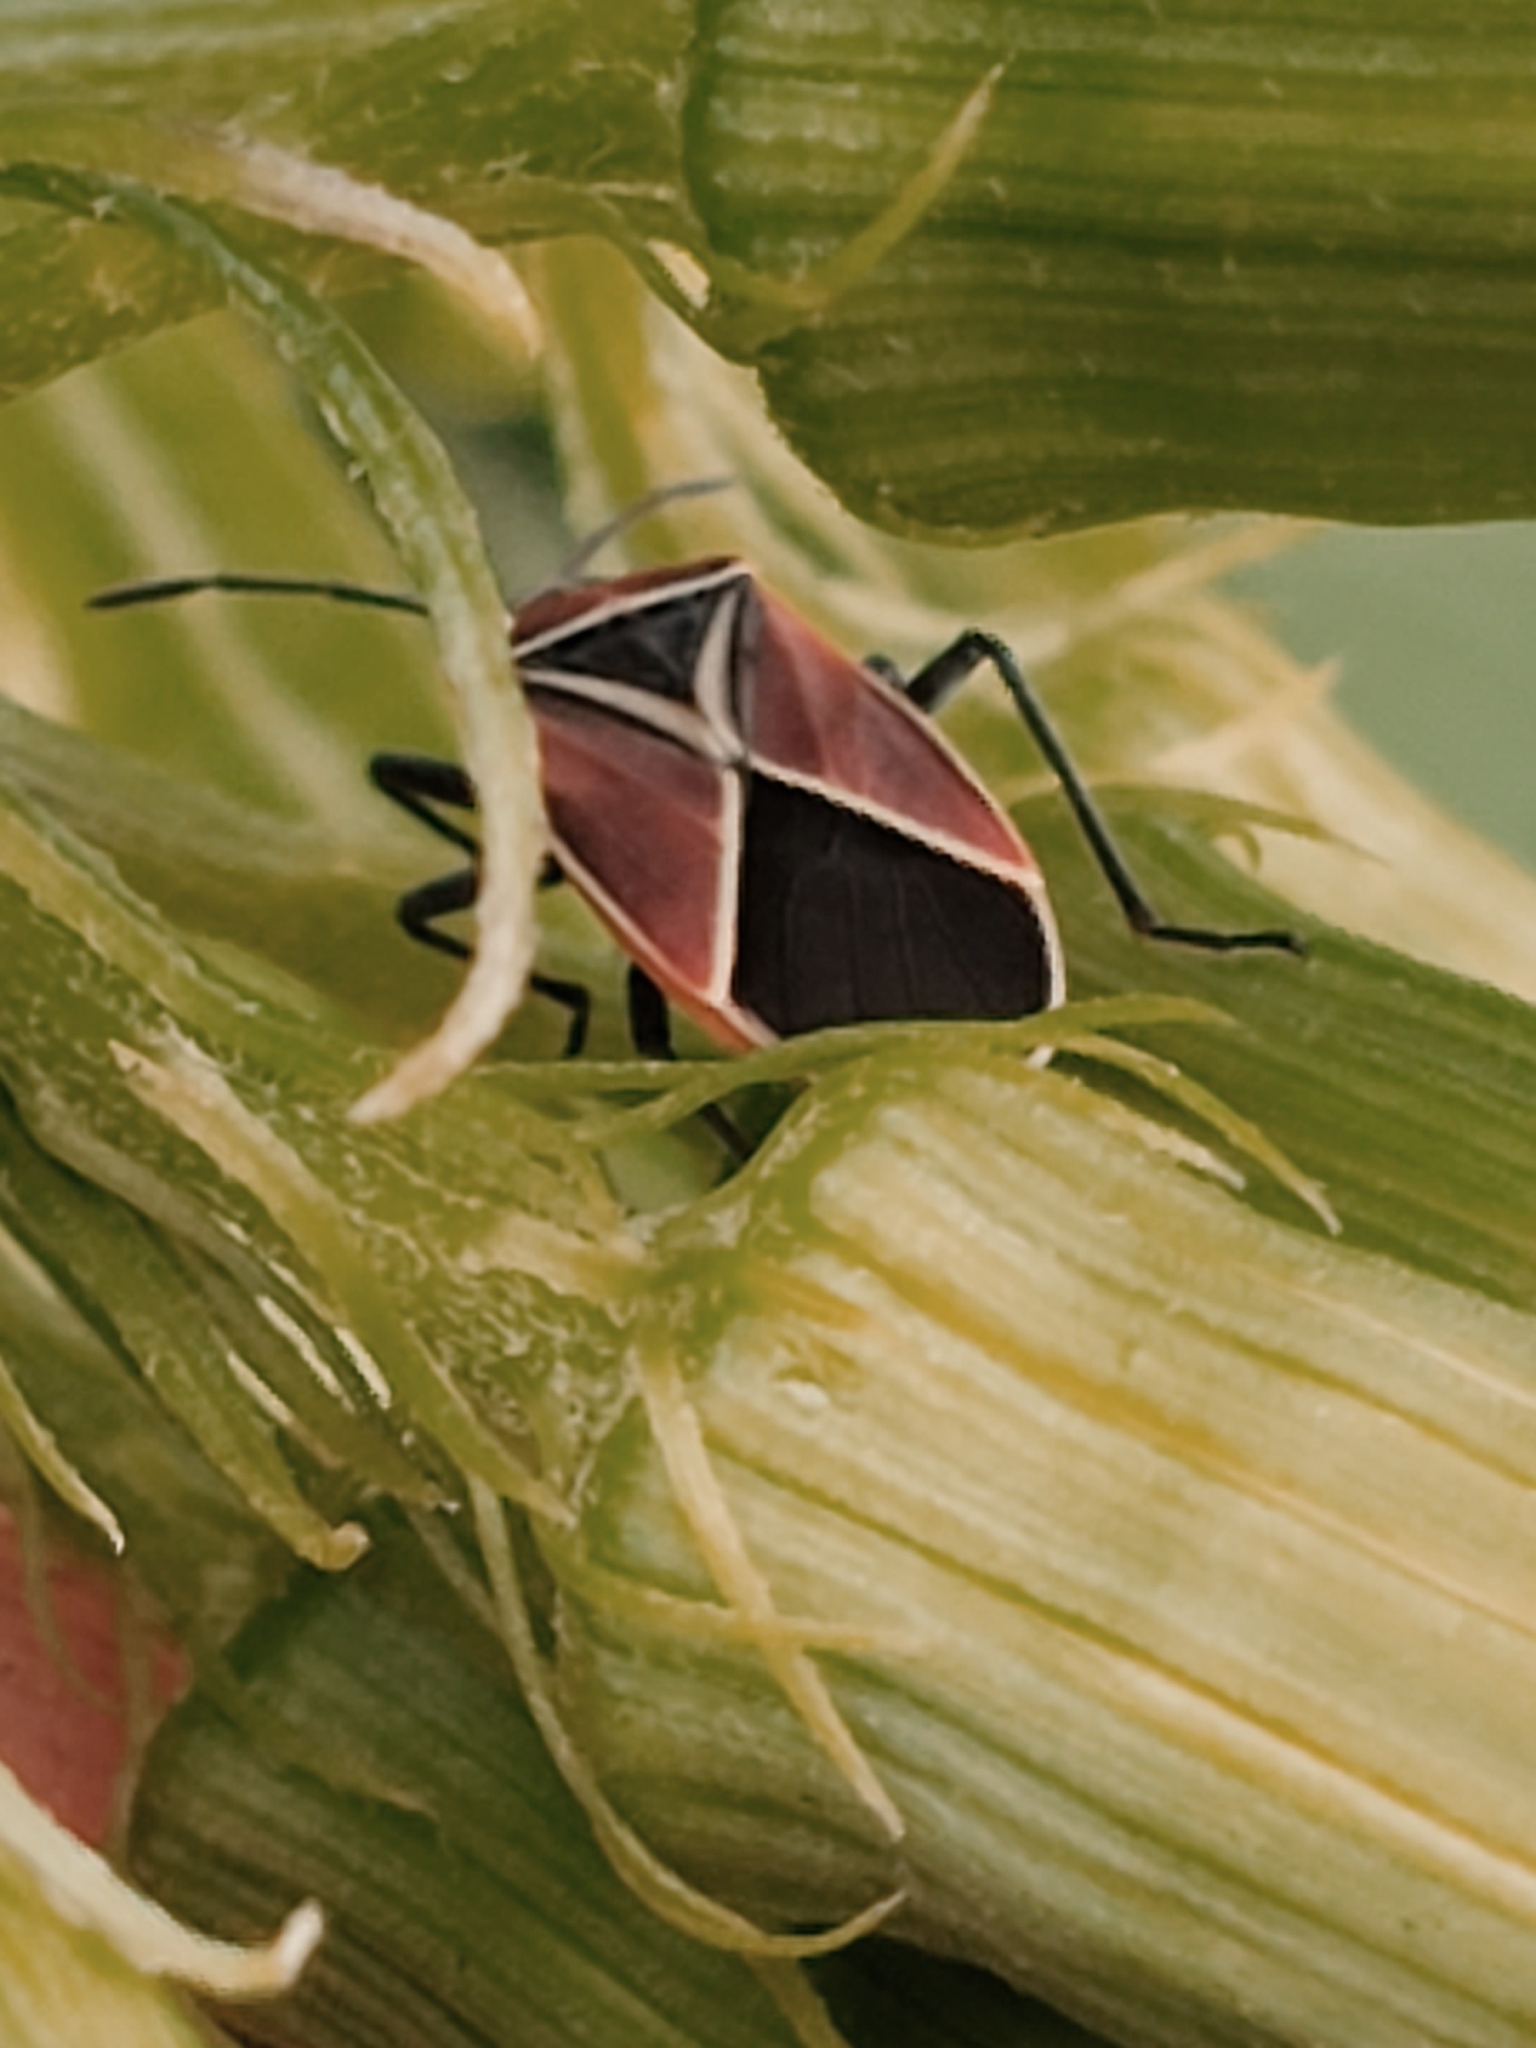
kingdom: Animalia
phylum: Arthropoda
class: Insecta
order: Hemiptera
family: Lygaeidae
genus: Neacoryphus
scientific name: Neacoryphus bicrucis
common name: Lygaeid bug
